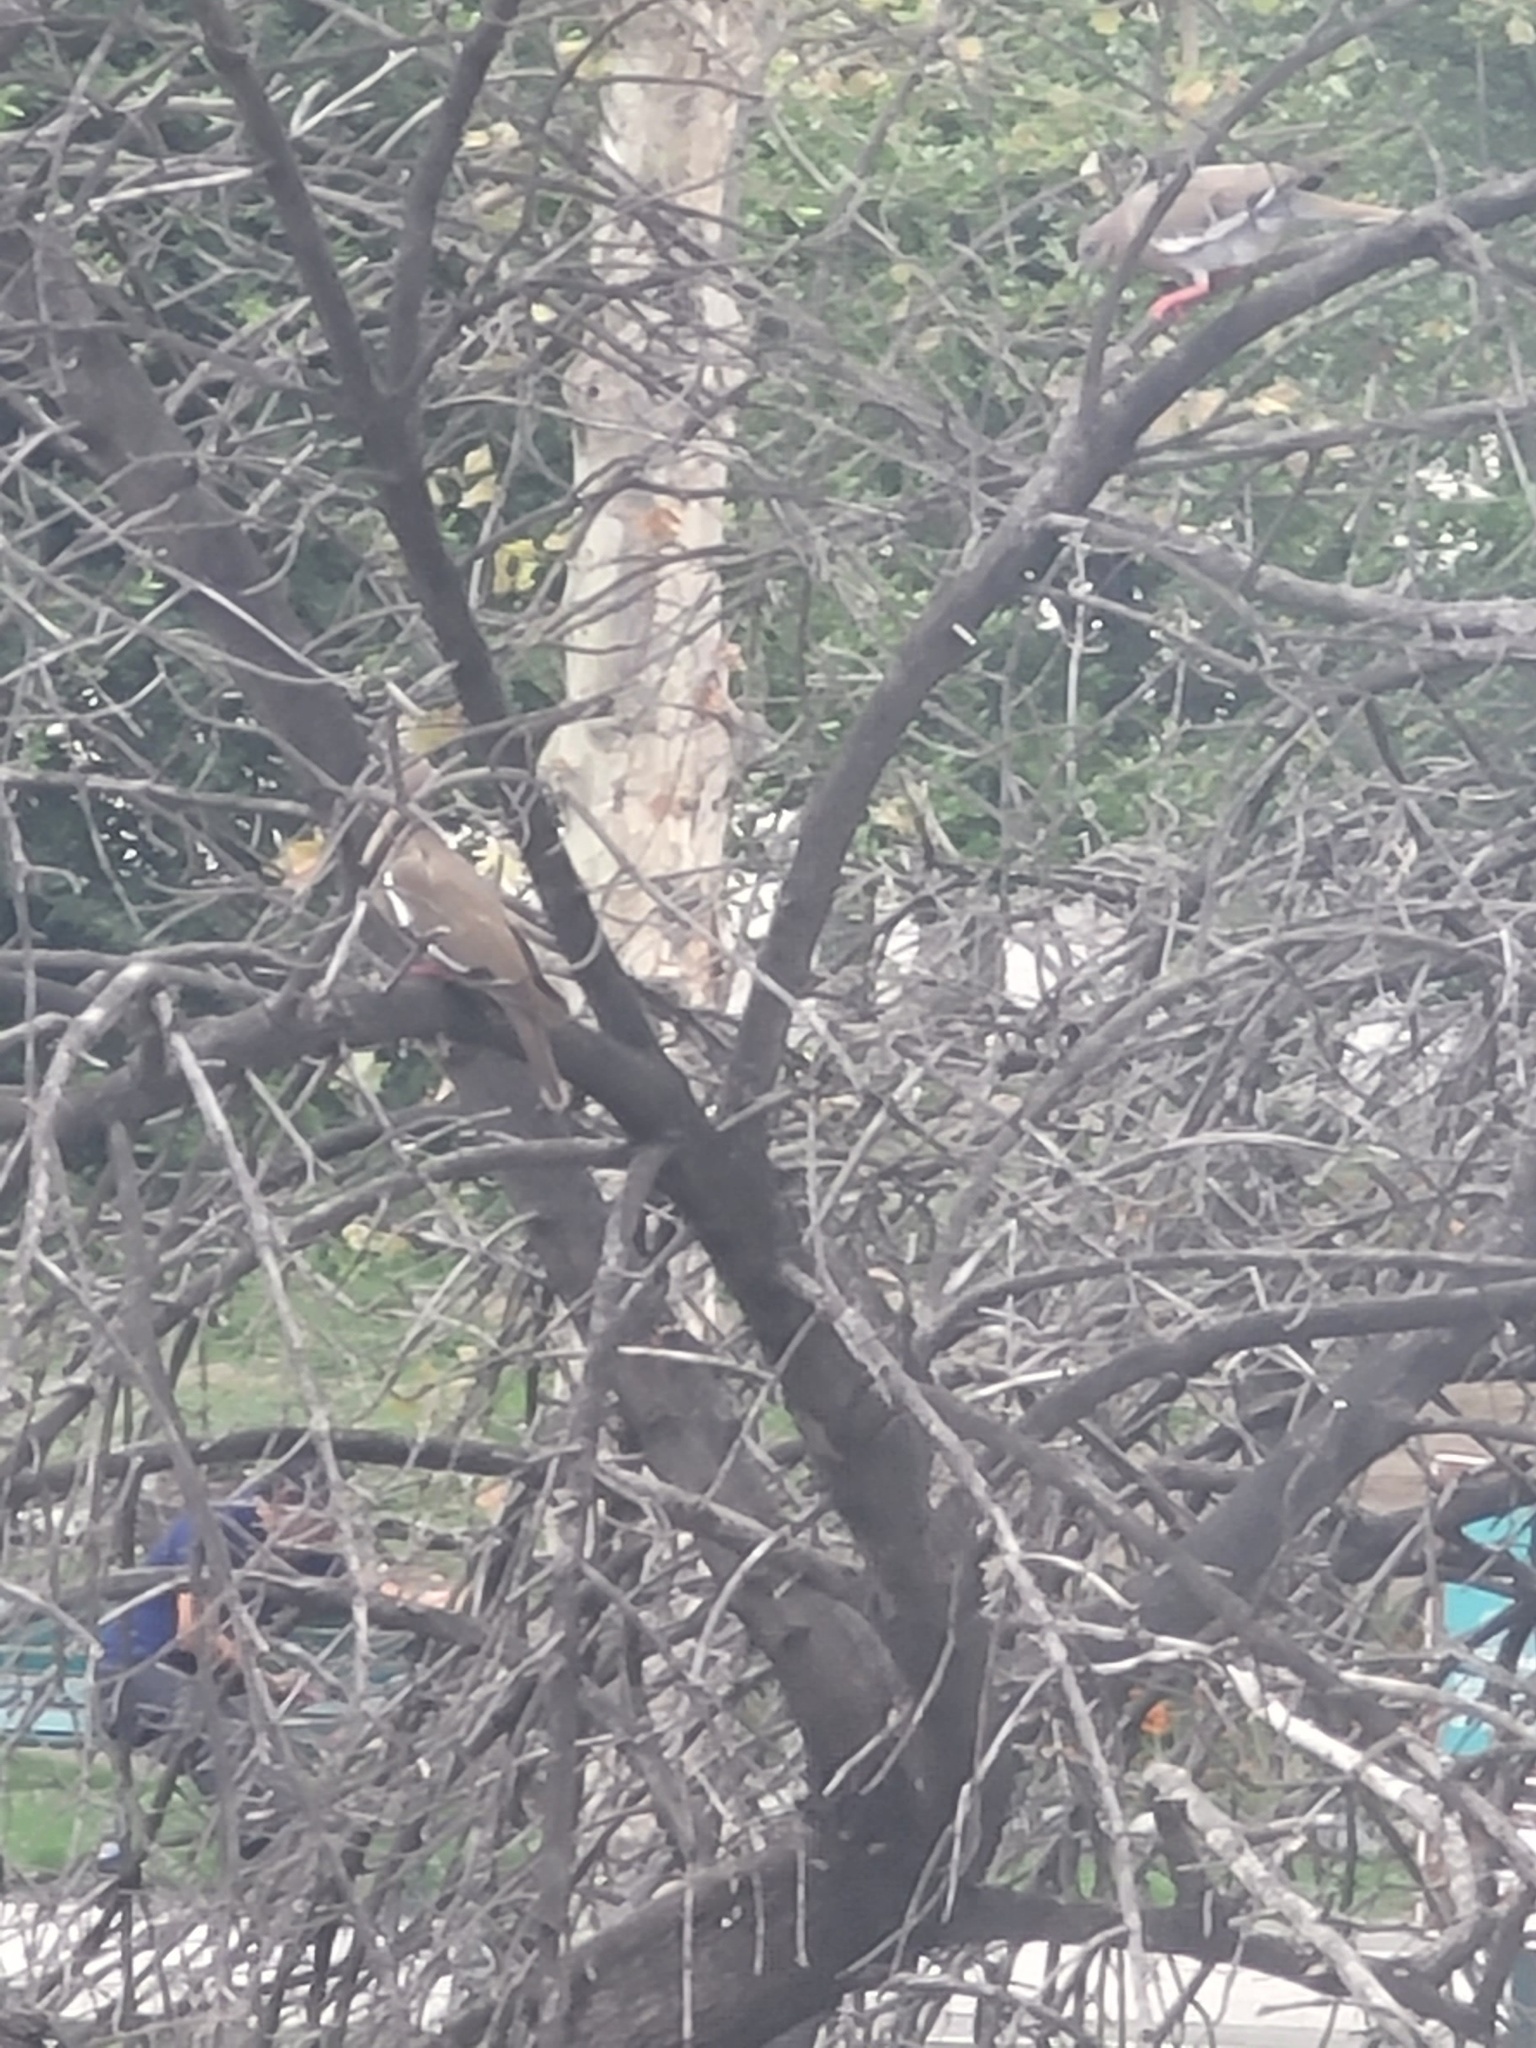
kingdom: Animalia
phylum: Chordata
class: Aves
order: Columbiformes
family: Columbidae
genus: Zenaida
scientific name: Zenaida asiatica
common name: White-winged dove
